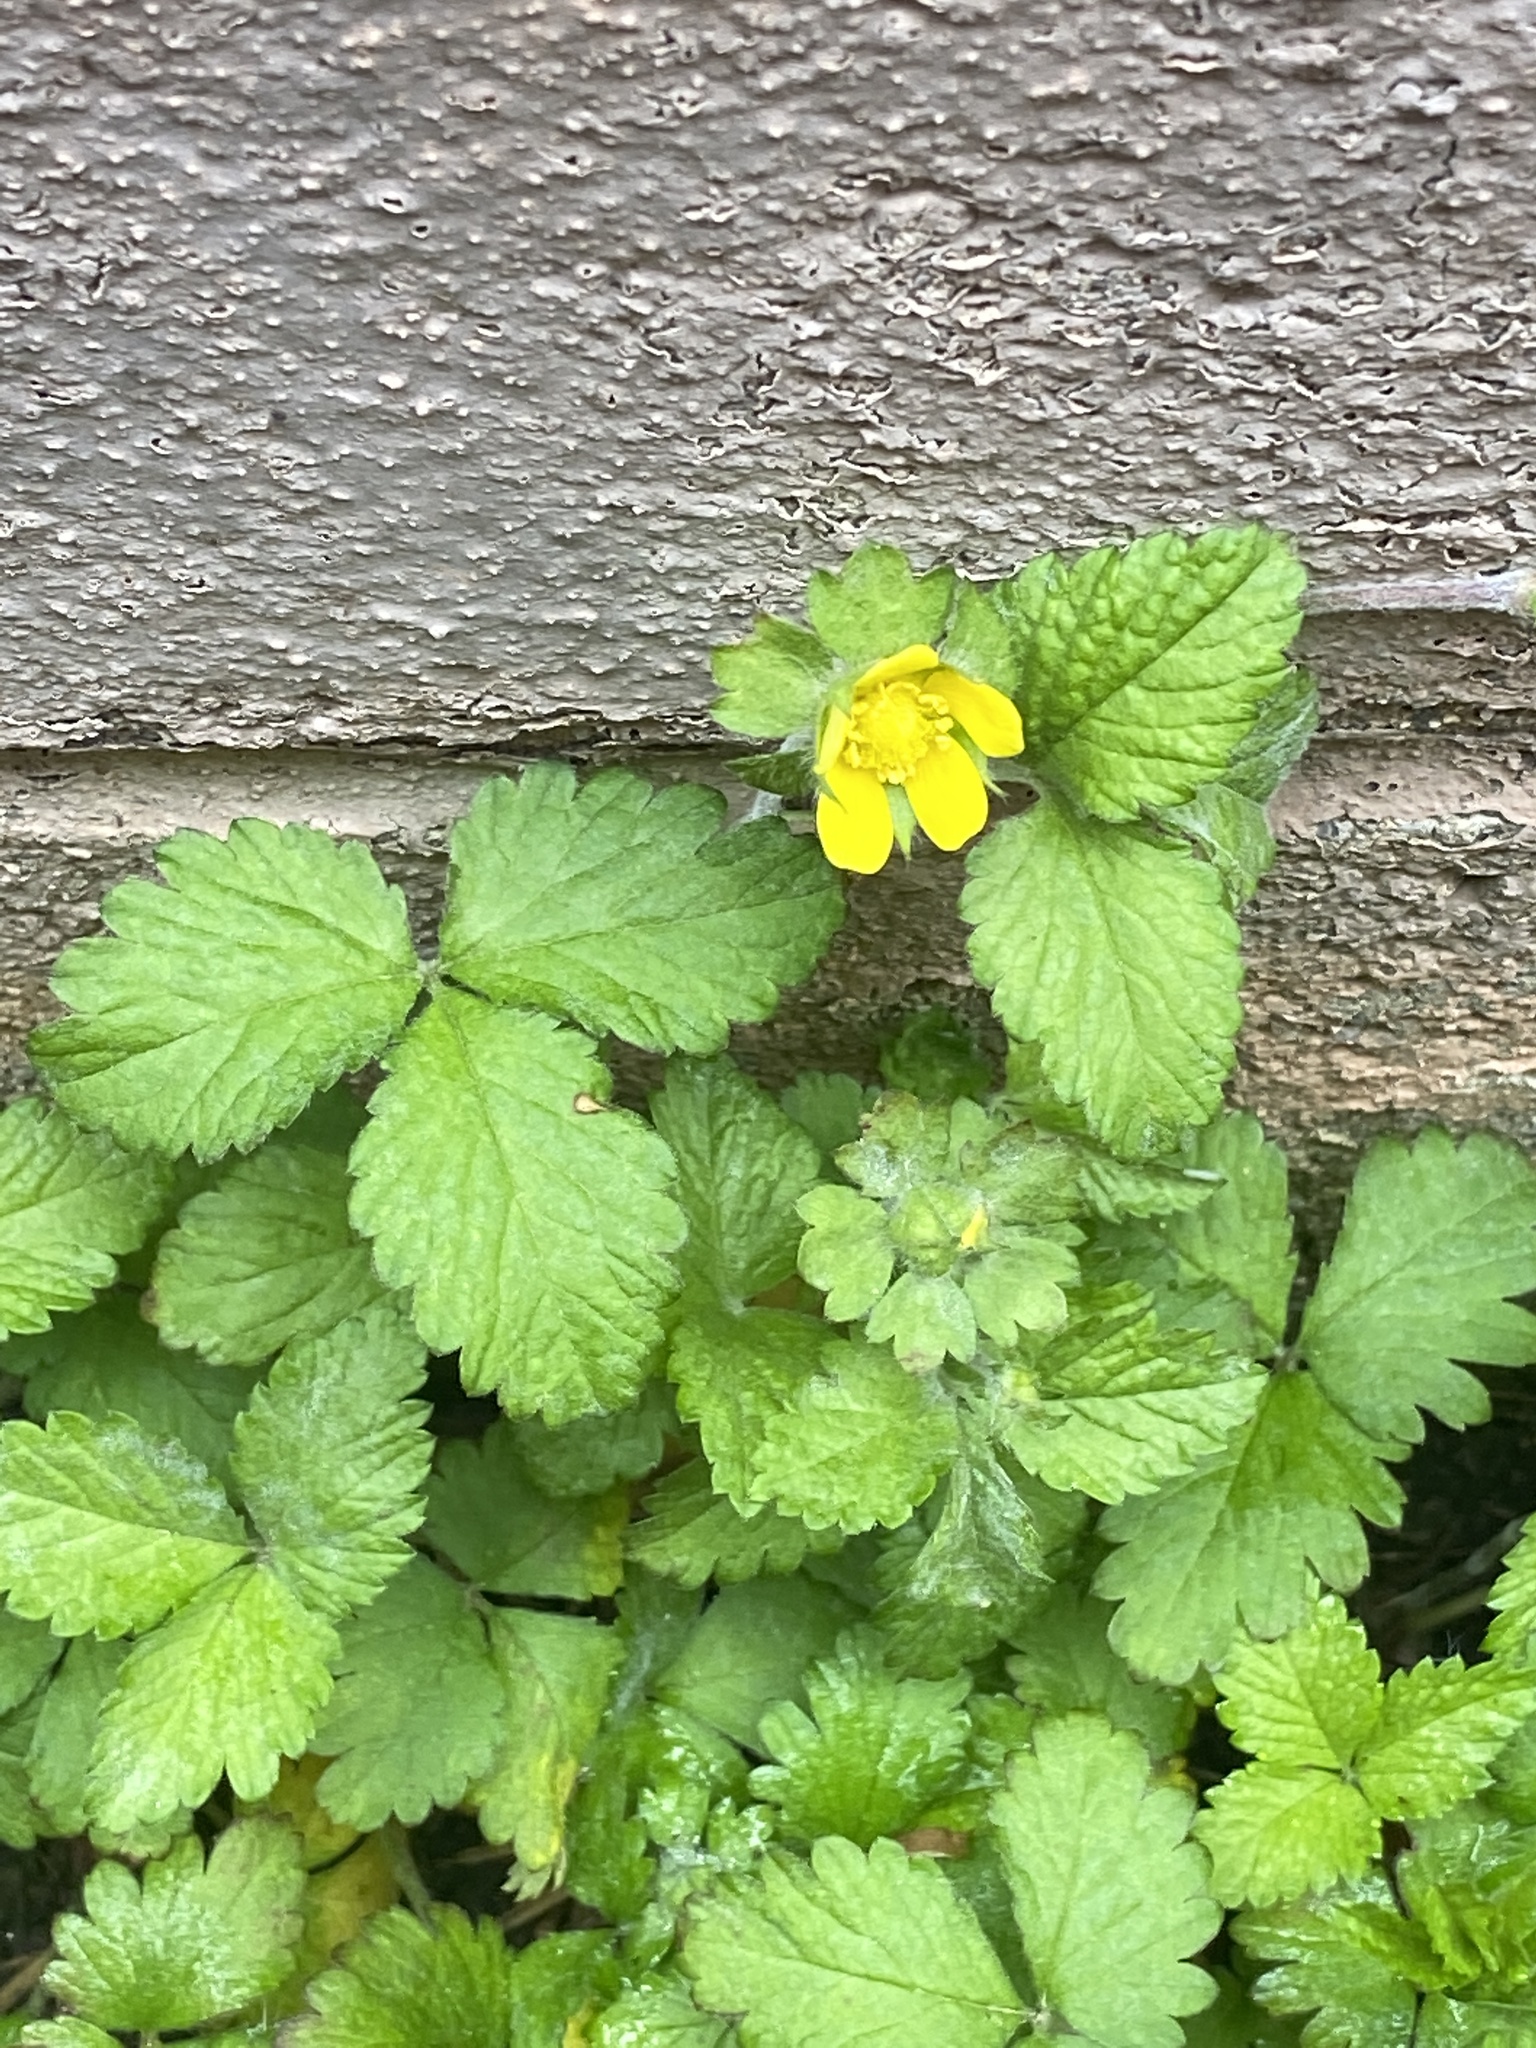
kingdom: Plantae
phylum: Tracheophyta
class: Magnoliopsida
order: Rosales
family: Rosaceae
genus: Potentilla
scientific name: Potentilla indica
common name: Yellow-flowered strawberry
